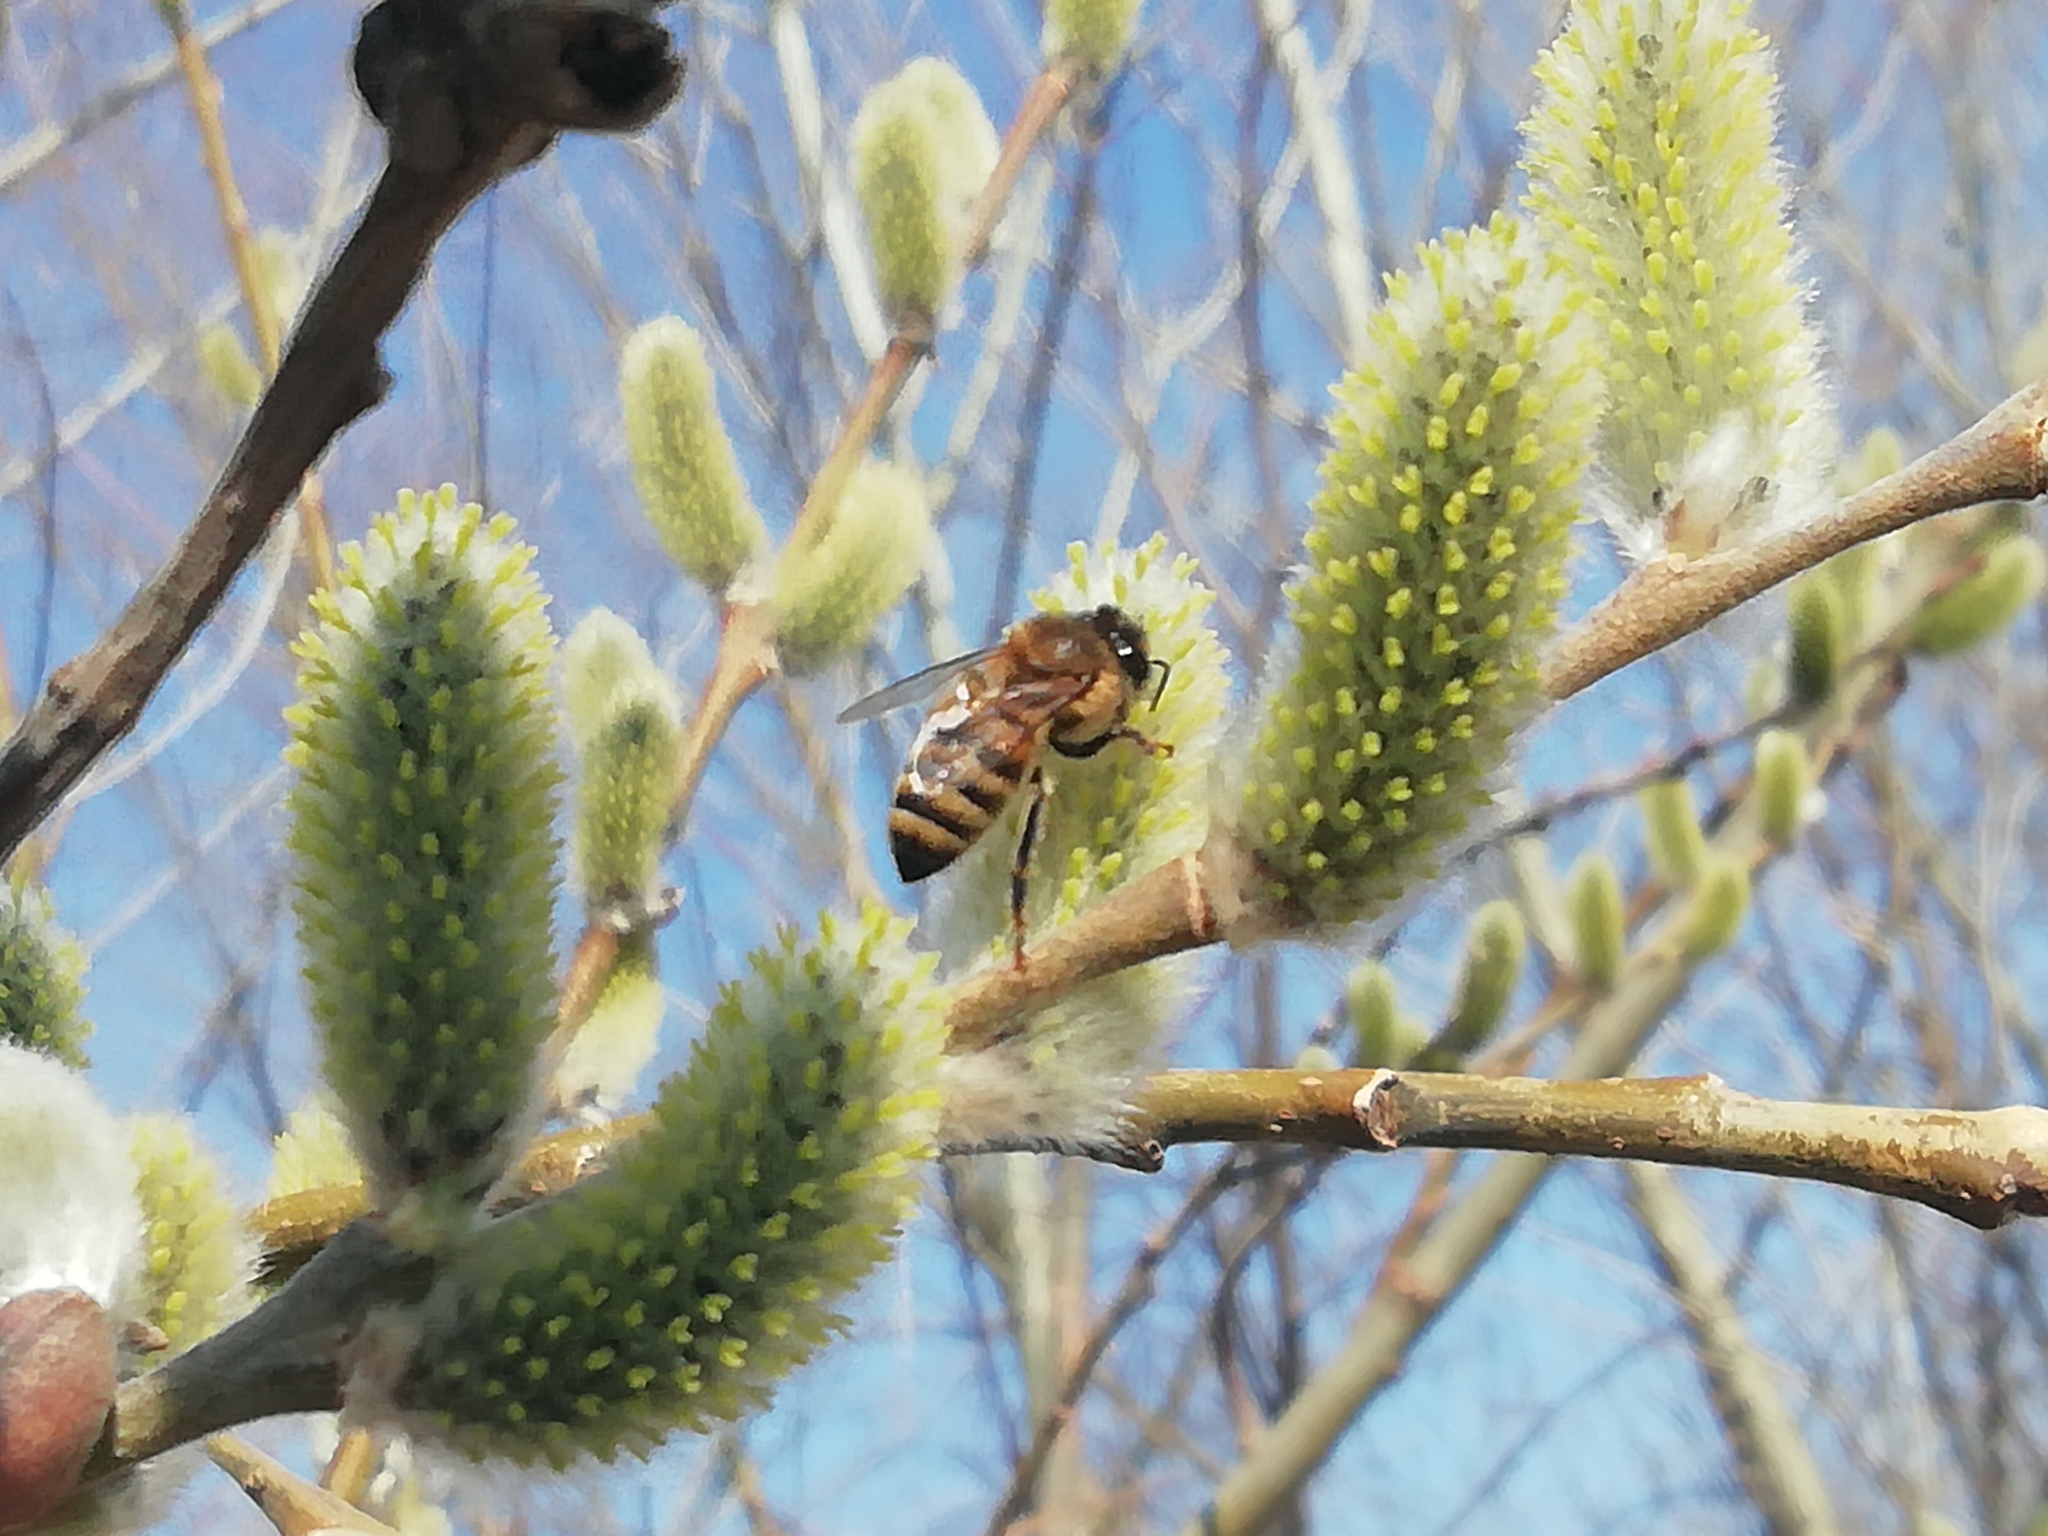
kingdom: Animalia
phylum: Arthropoda
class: Insecta
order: Hymenoptera
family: Apidae
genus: Apis
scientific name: Apis mellifera
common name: Honey bee
